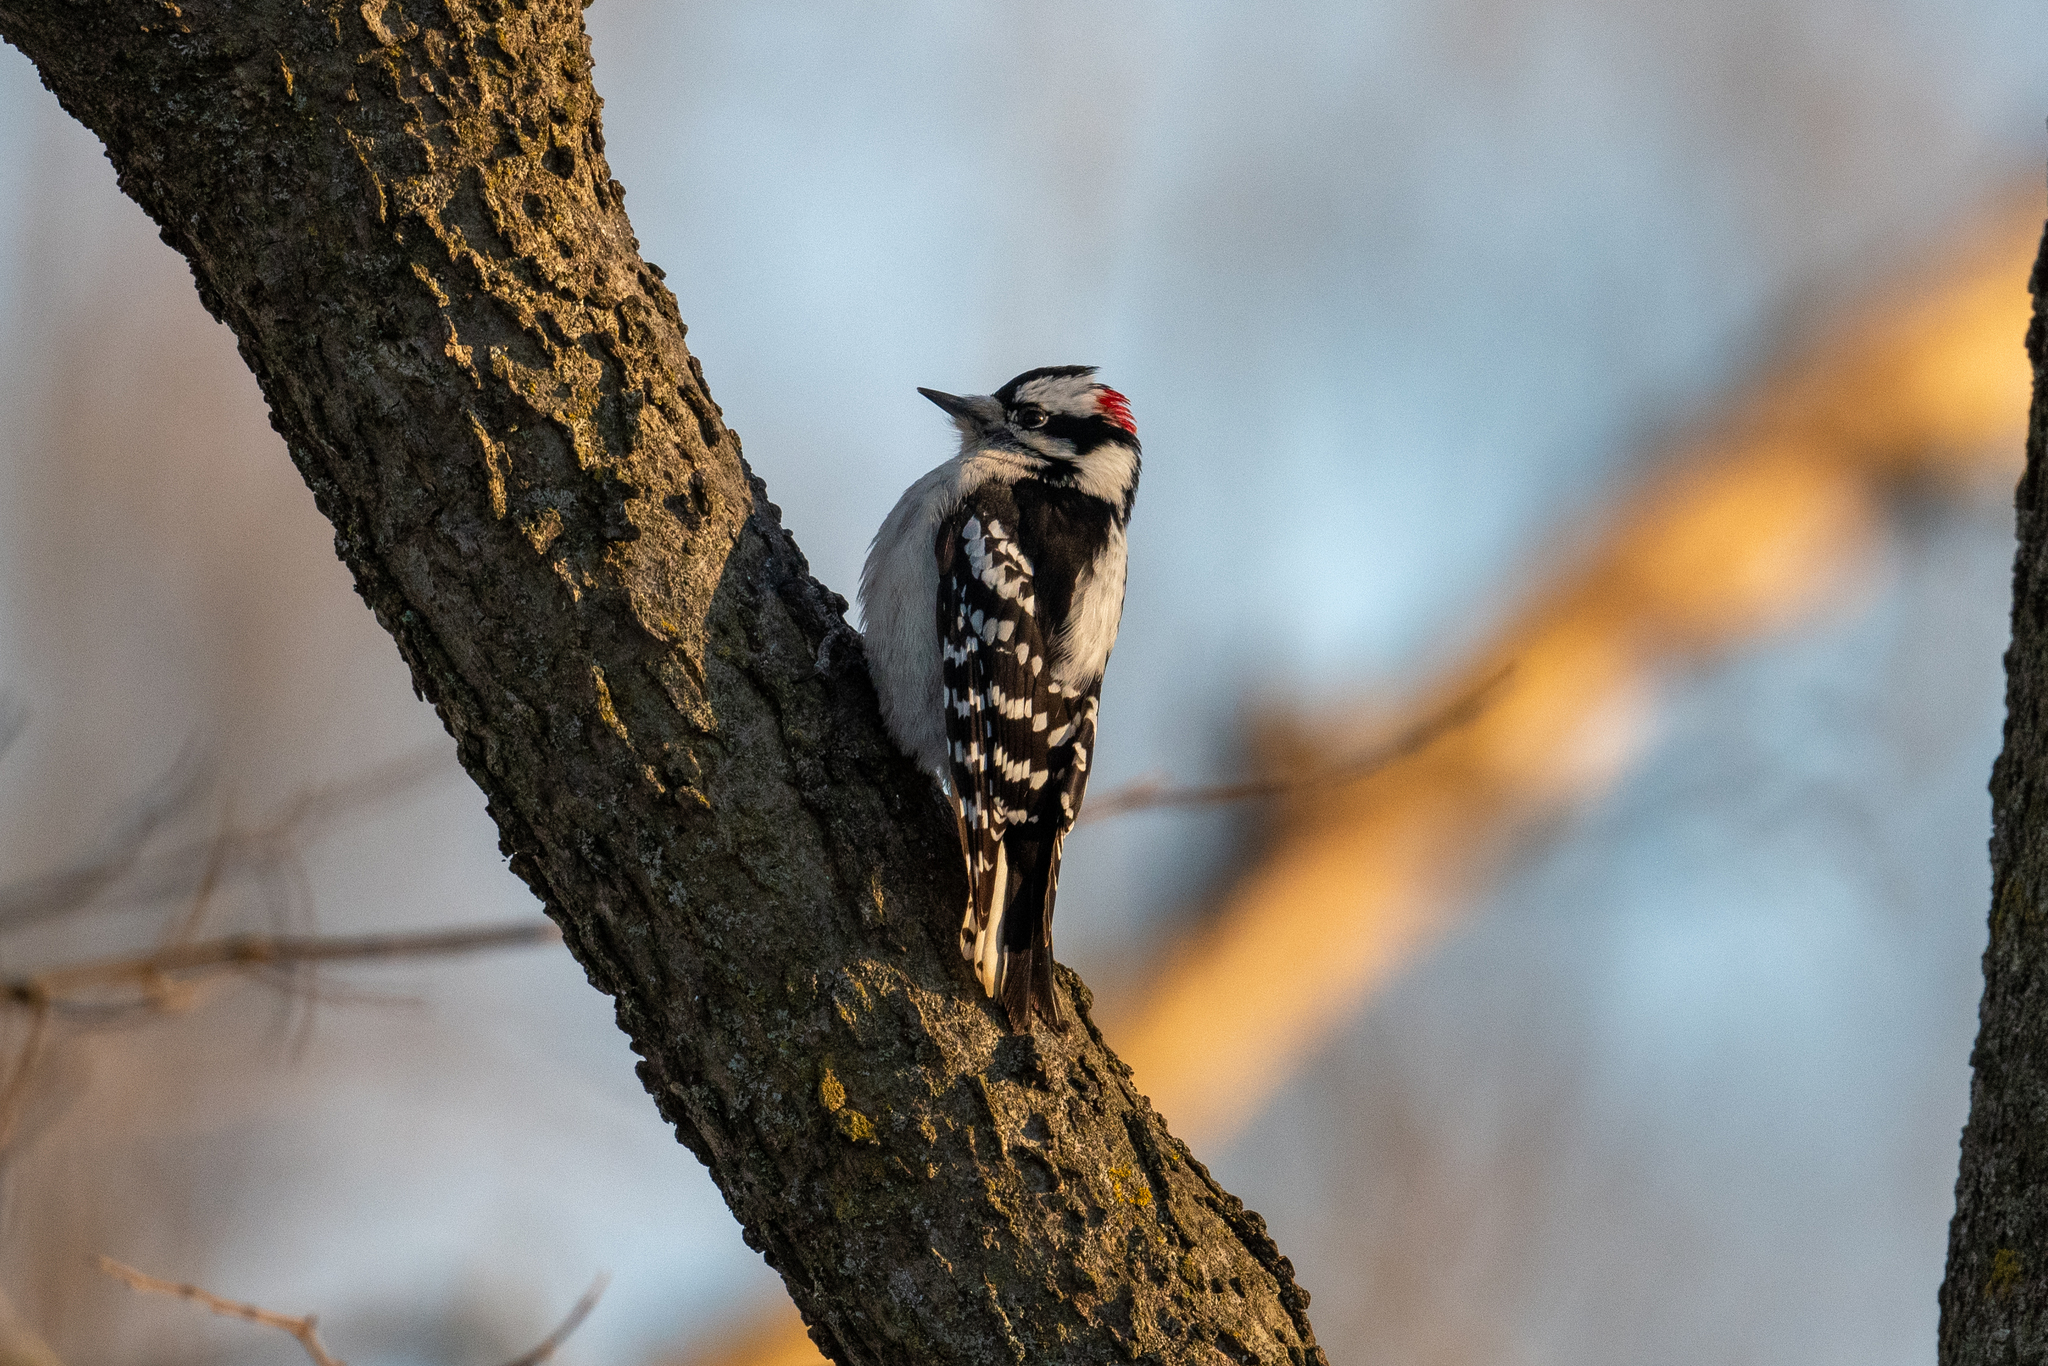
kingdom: Animalia
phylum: Chordata
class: Aves
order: Piciformes
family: Picidae
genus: Dryobates
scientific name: Dryobates pubescens
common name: Downy woodpecker
